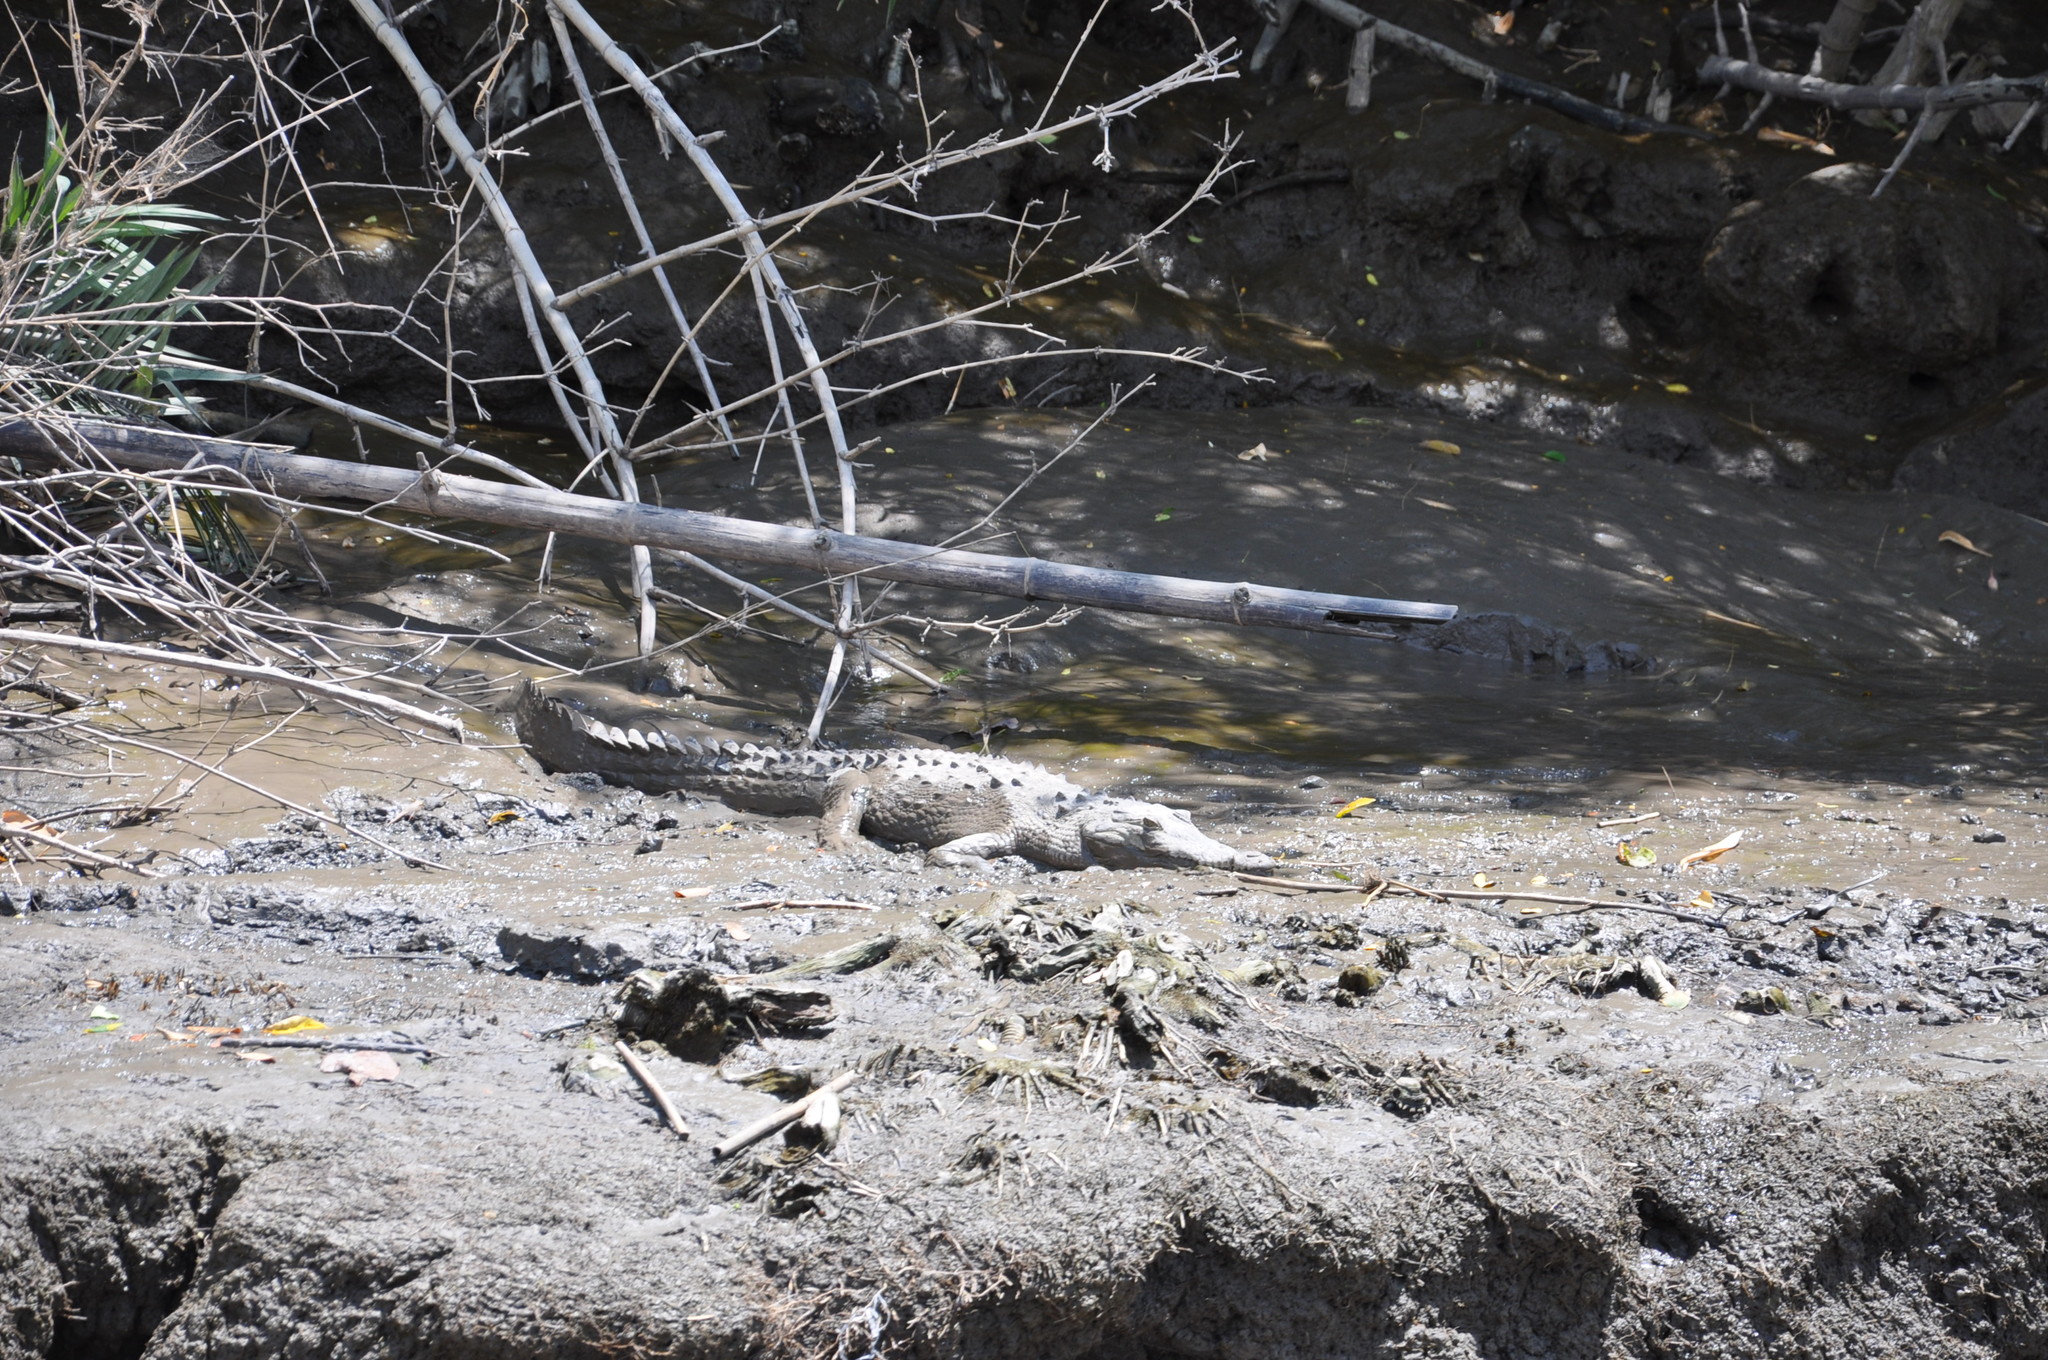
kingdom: Animalia
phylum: Chordata
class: Crocodylia
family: Crocodylidae
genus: Crocodylus
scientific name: Crocodylus acutus
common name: American crocodile
